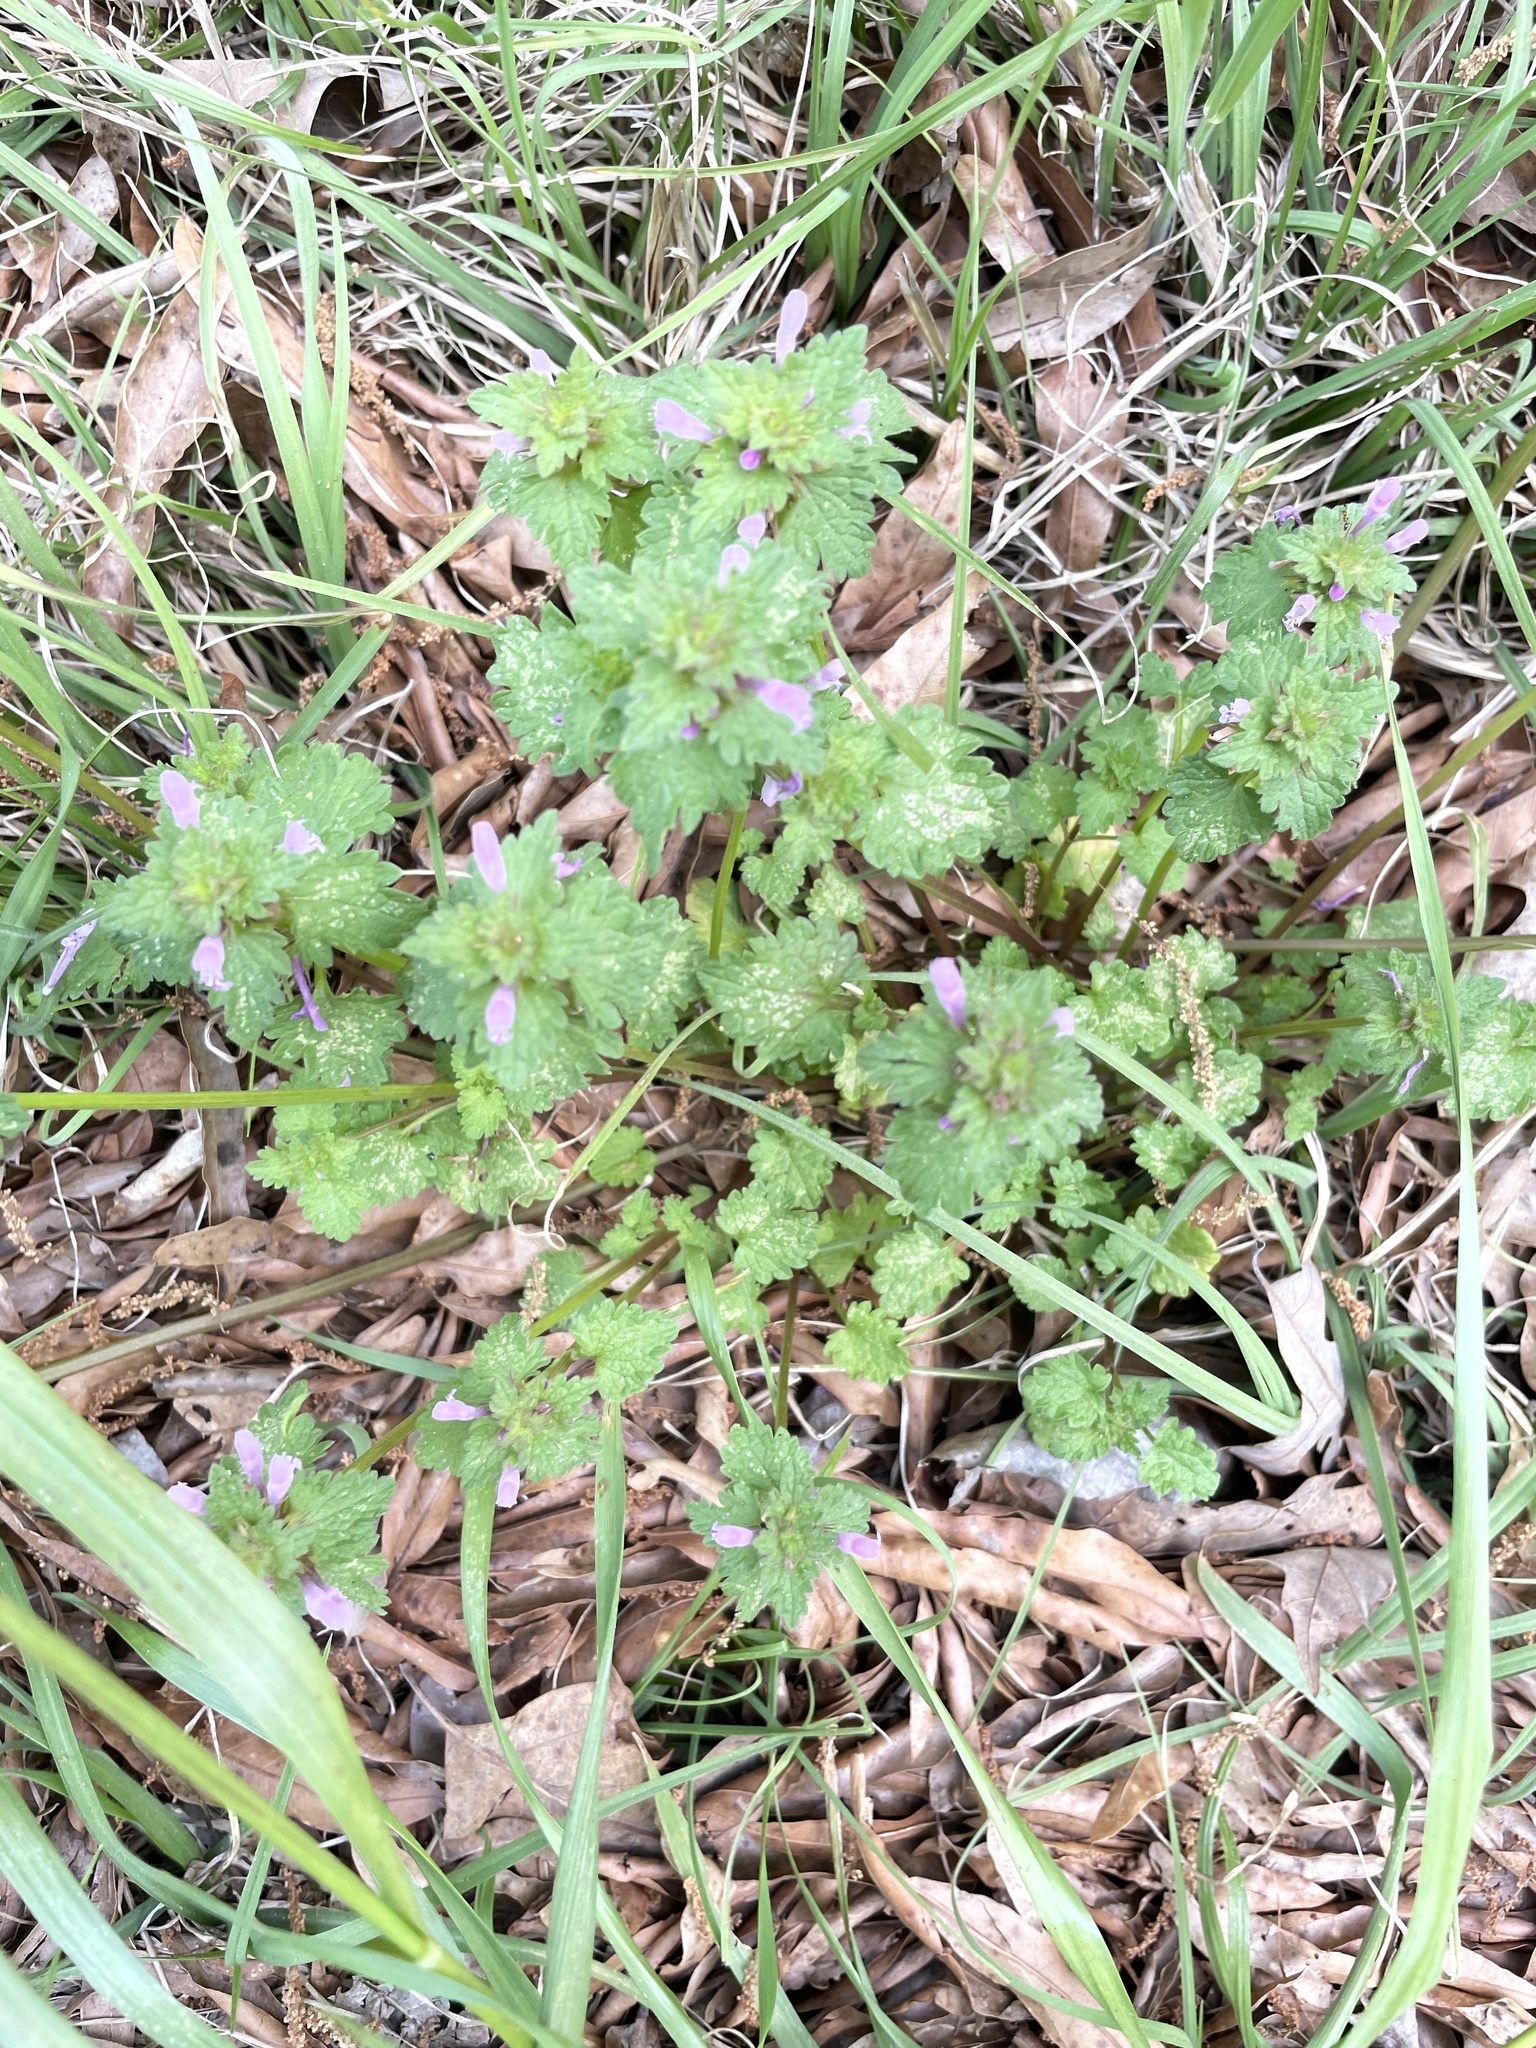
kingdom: Plantae
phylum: Tracheophyta
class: Magnoliopsida
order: Lamiales
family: Lamiaceae
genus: Lamium
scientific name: Lamium purpureum
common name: Red dead-nettle
